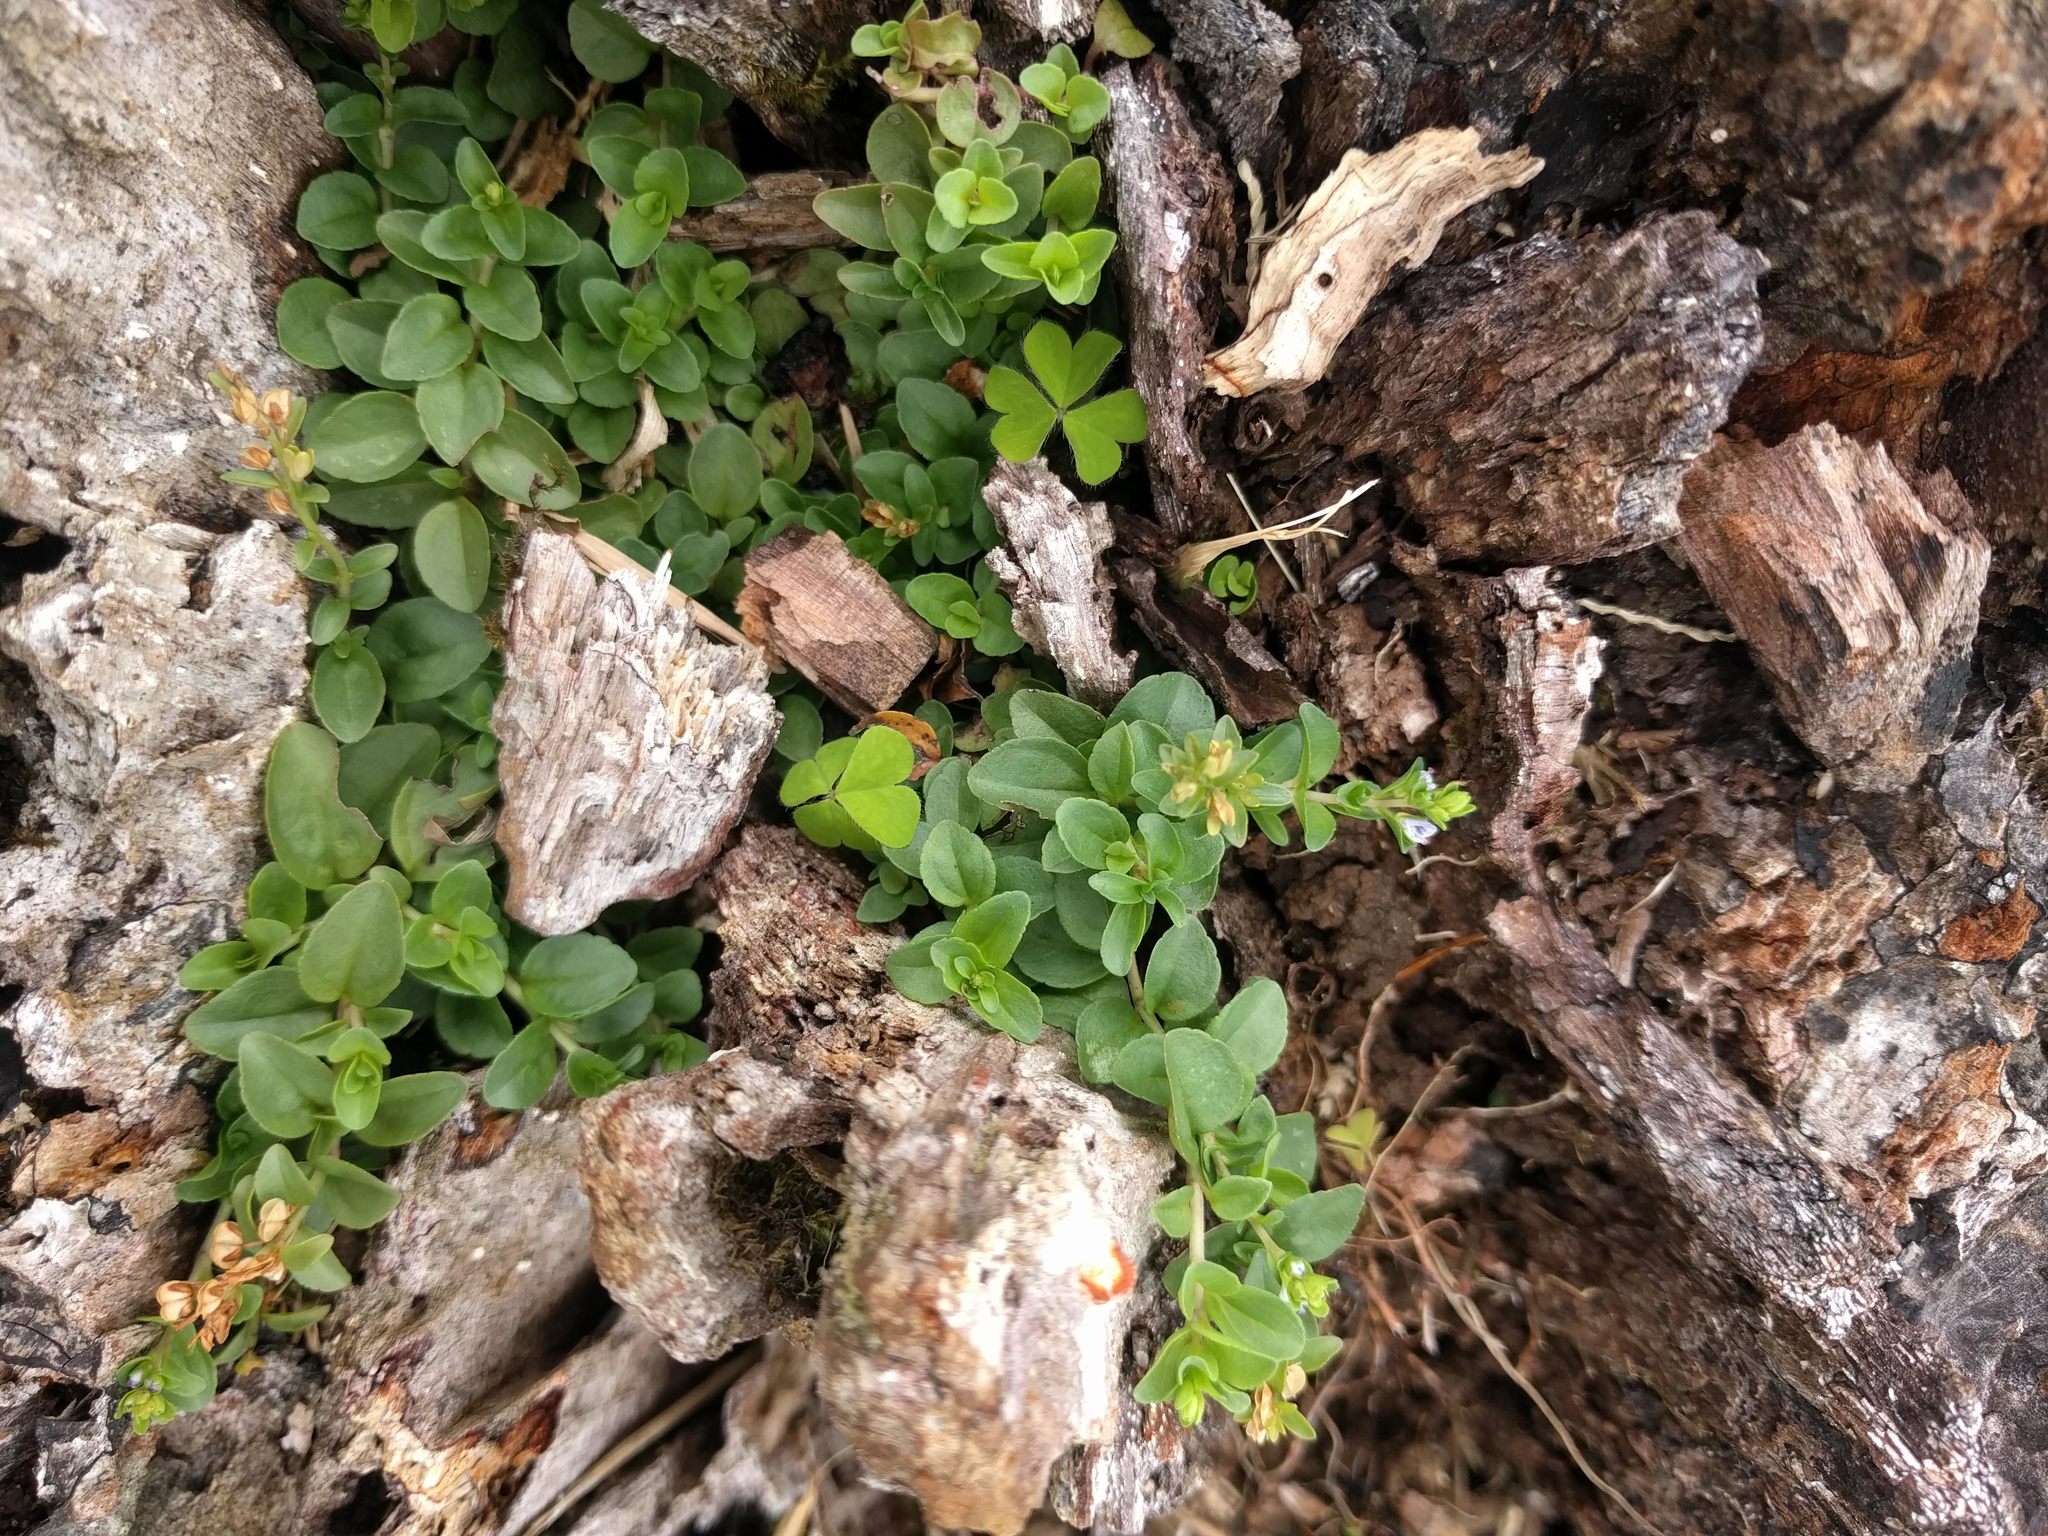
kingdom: Plantae
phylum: Tracheophyta
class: Magnoliopsida
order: Lamiales
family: Plantaginaceae
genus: Veronica
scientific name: Veronica serpyllifolia
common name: Thyme-leaved speedwell
